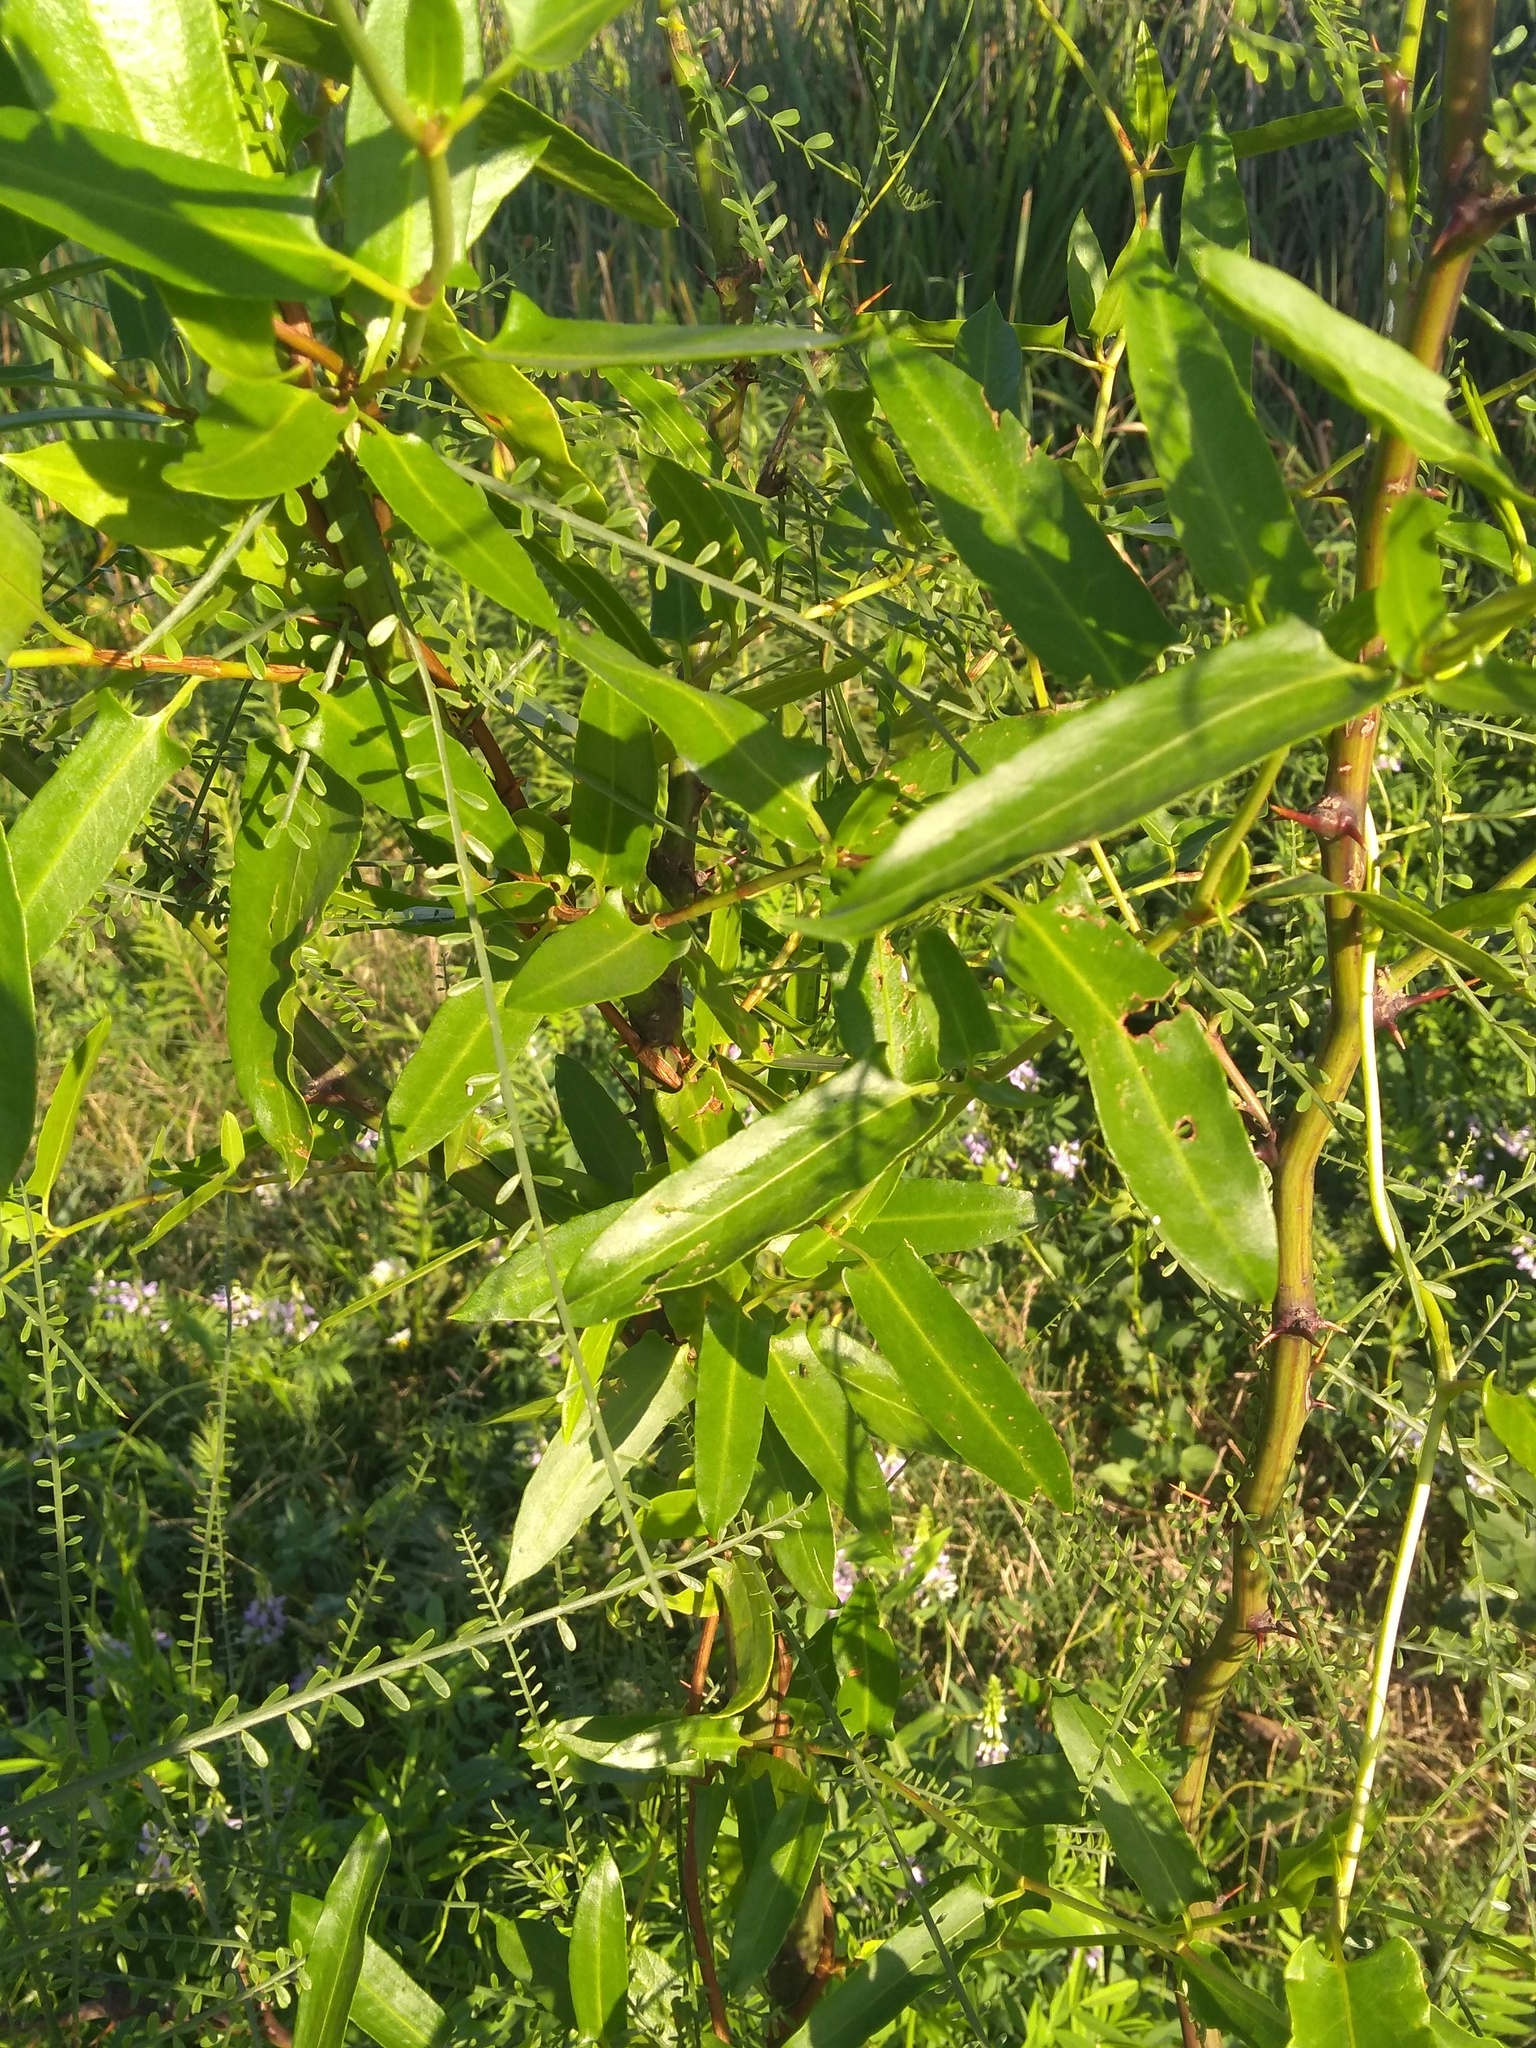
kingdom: Plantae
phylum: Tracheophyta
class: Magnoliopsida
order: Caryophyllales
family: Polygonaceae
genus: Muehlenbeckia
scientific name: Muehlenbeckia sagittifolia
